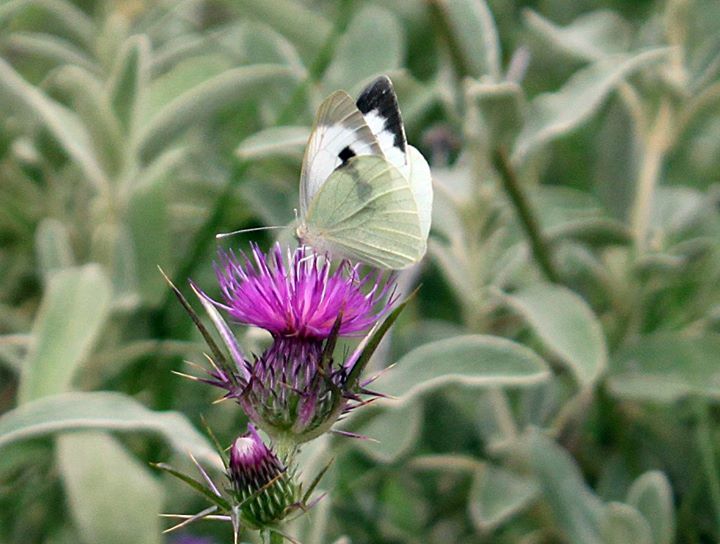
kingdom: Animalia
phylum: Arthropoda
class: Insecta
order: Lepidoptera
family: Pieridae
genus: Pieris
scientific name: Pieris brassicae
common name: Large white
